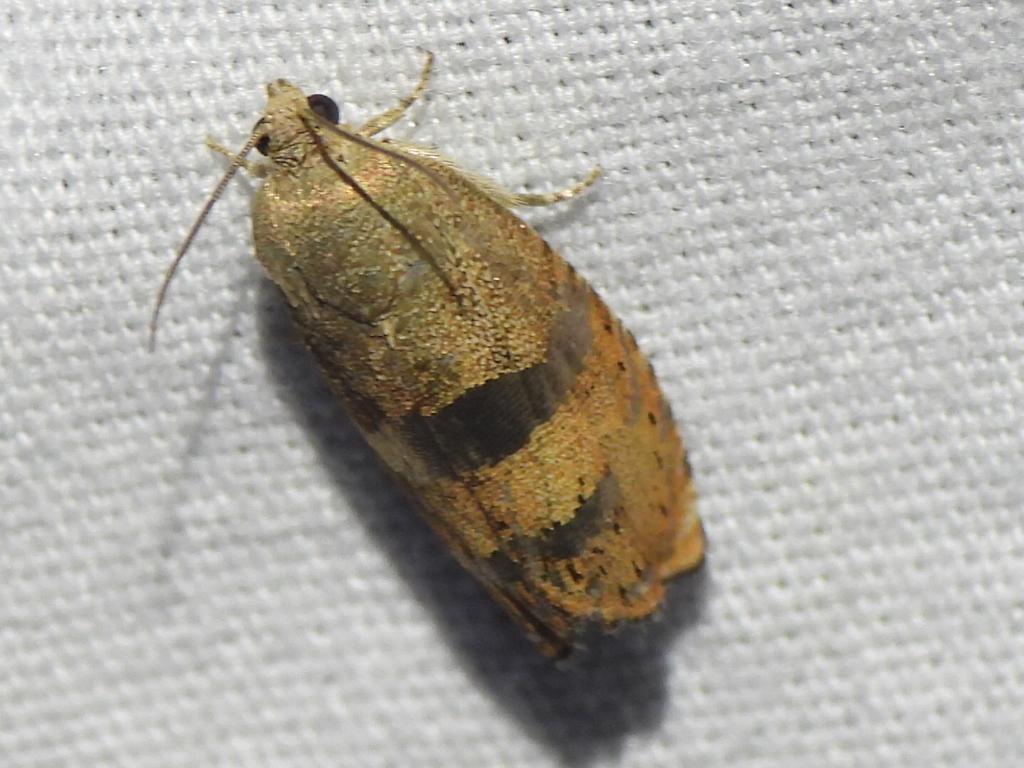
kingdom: Animalia
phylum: Arthropoda
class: Insecta
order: Lepidoptera
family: Tortricidae
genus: Cydia
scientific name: Cydia latiferreana
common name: Filbertworm moth
